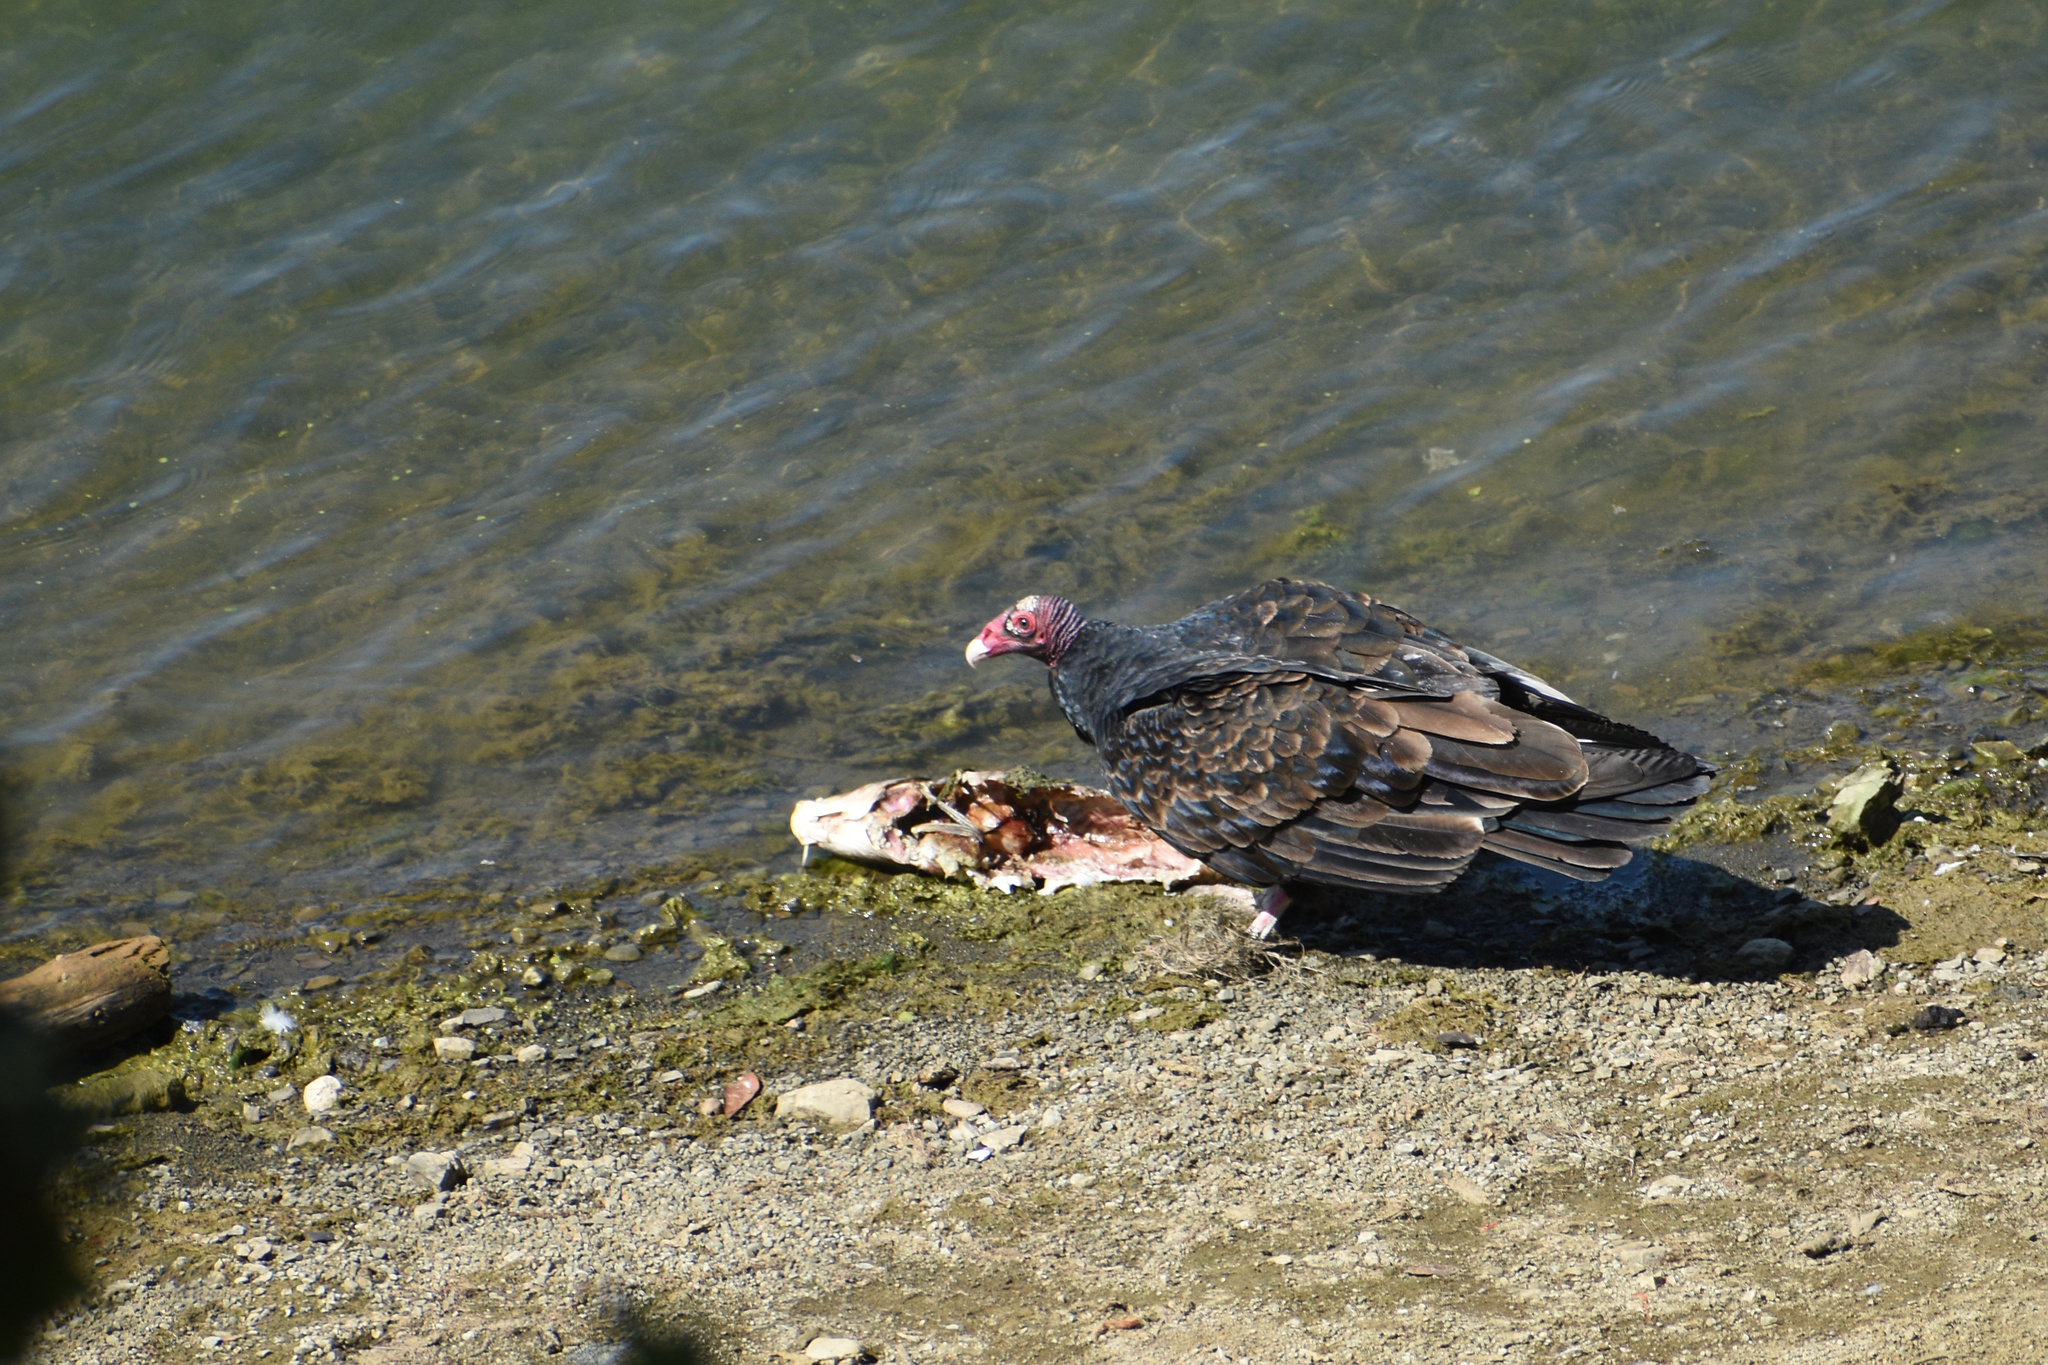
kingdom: Animalia
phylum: Chordata
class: Aves
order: Accipitriformes
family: Cathartidae
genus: Cathartes
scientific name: Cathartes aura
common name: Turkey vulture
